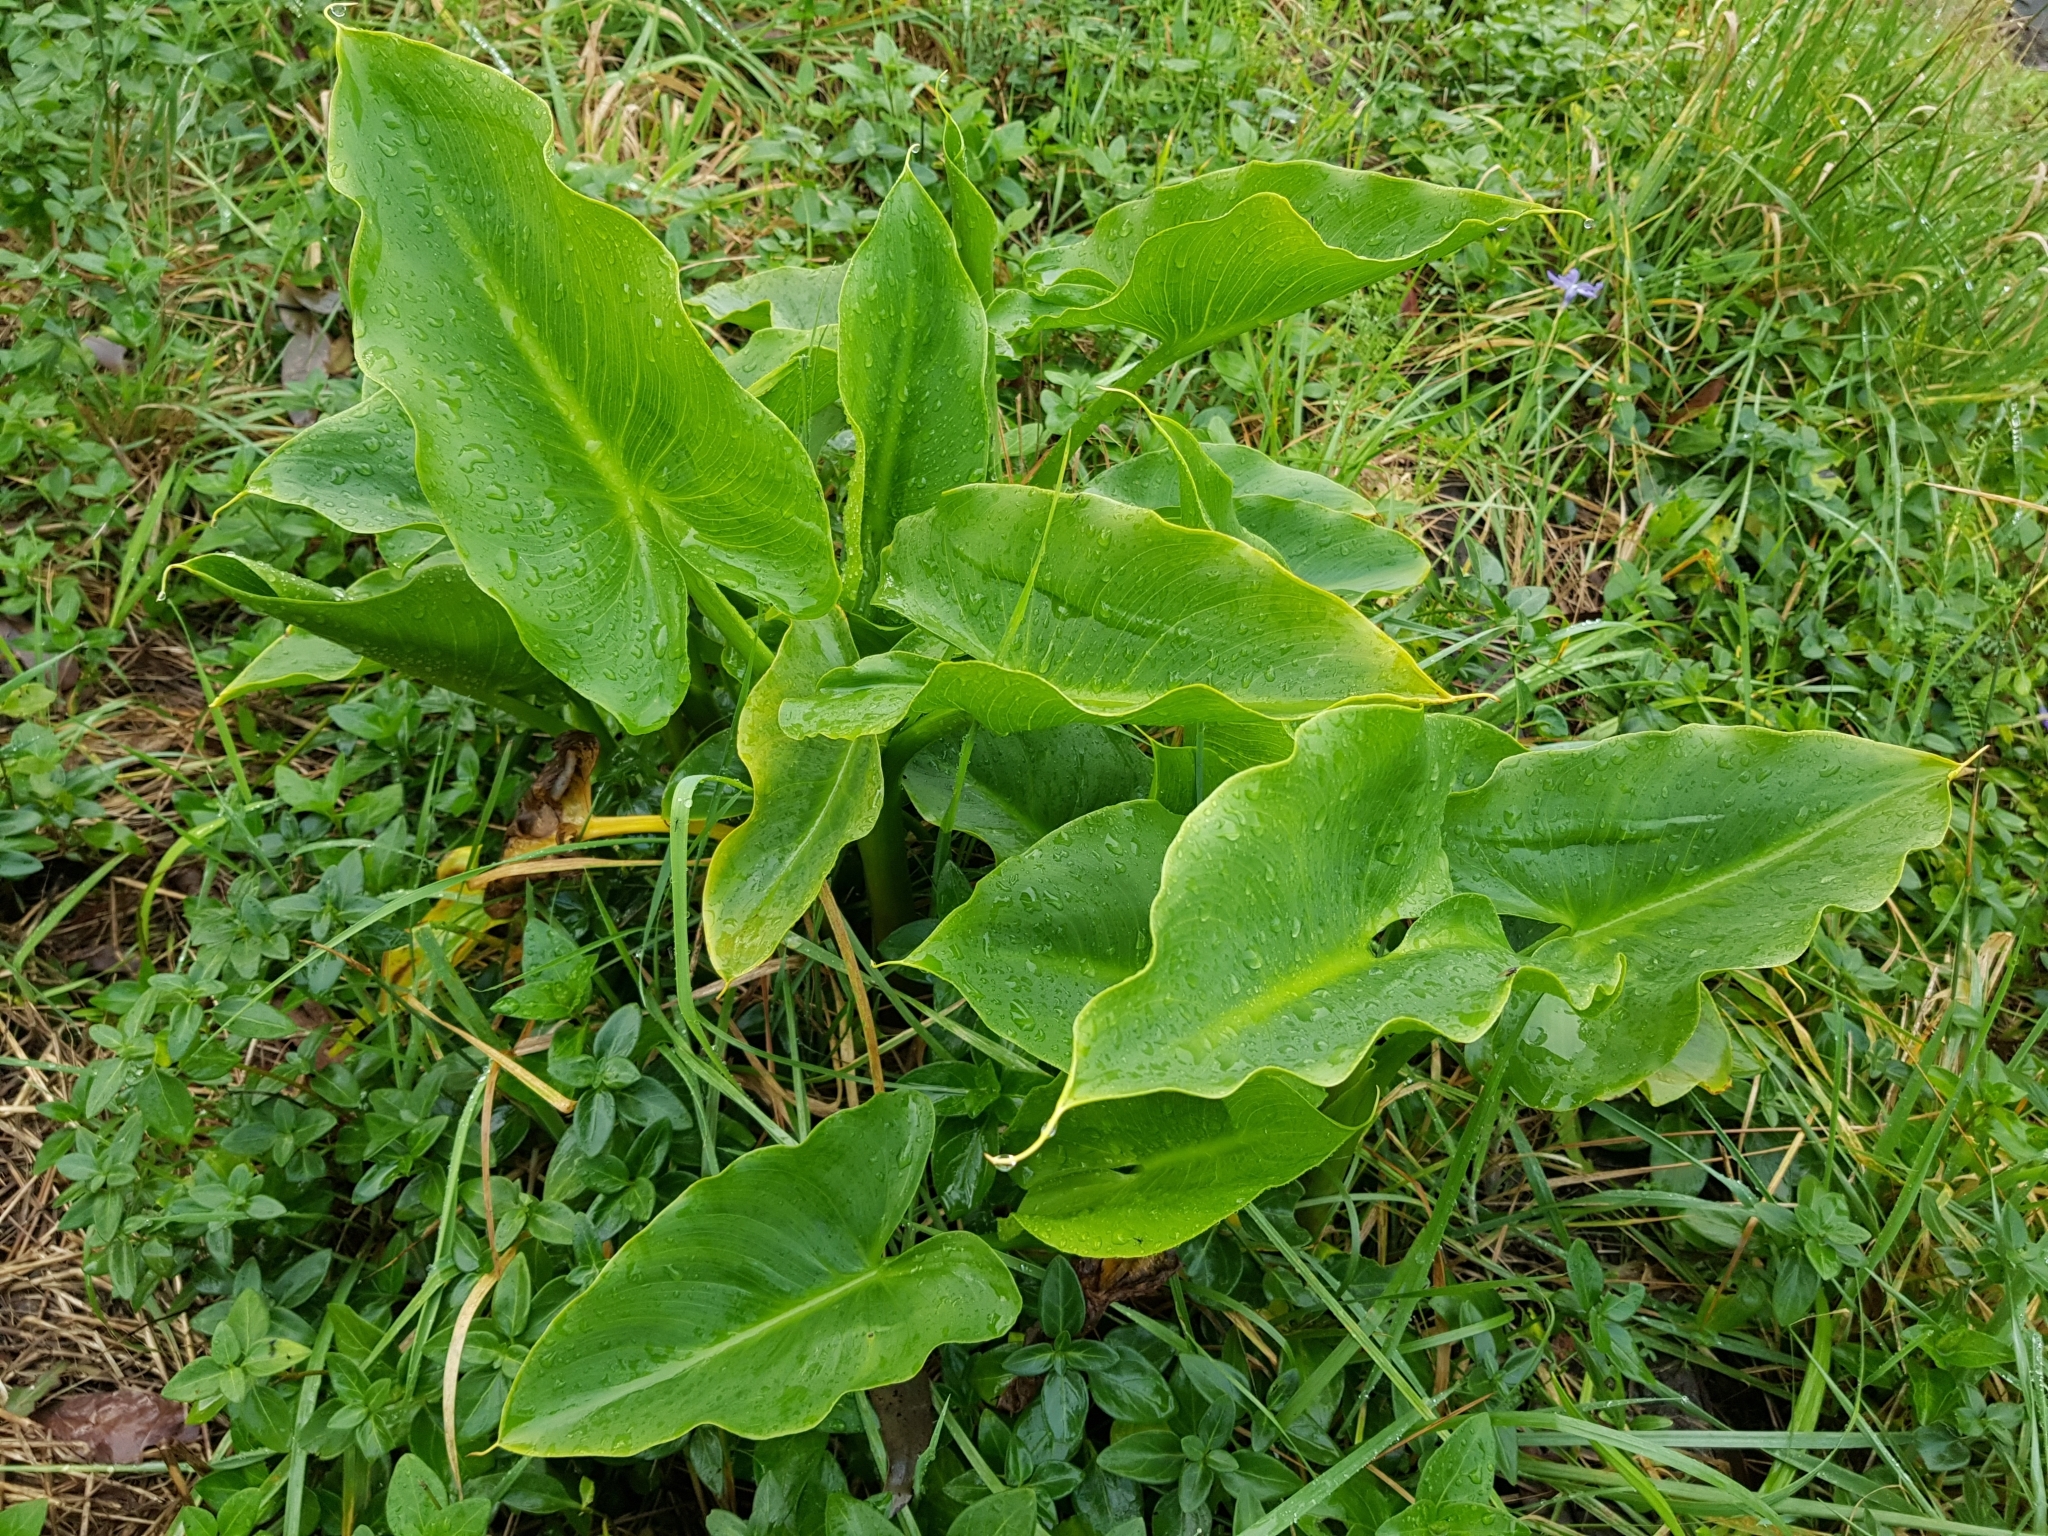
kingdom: Plantae
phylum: Tracheophyta
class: Liliopsida
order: Alismatales
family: Araceae
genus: Zantedeschia
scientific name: Zantedeschia aethiopica
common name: Altar-lily
